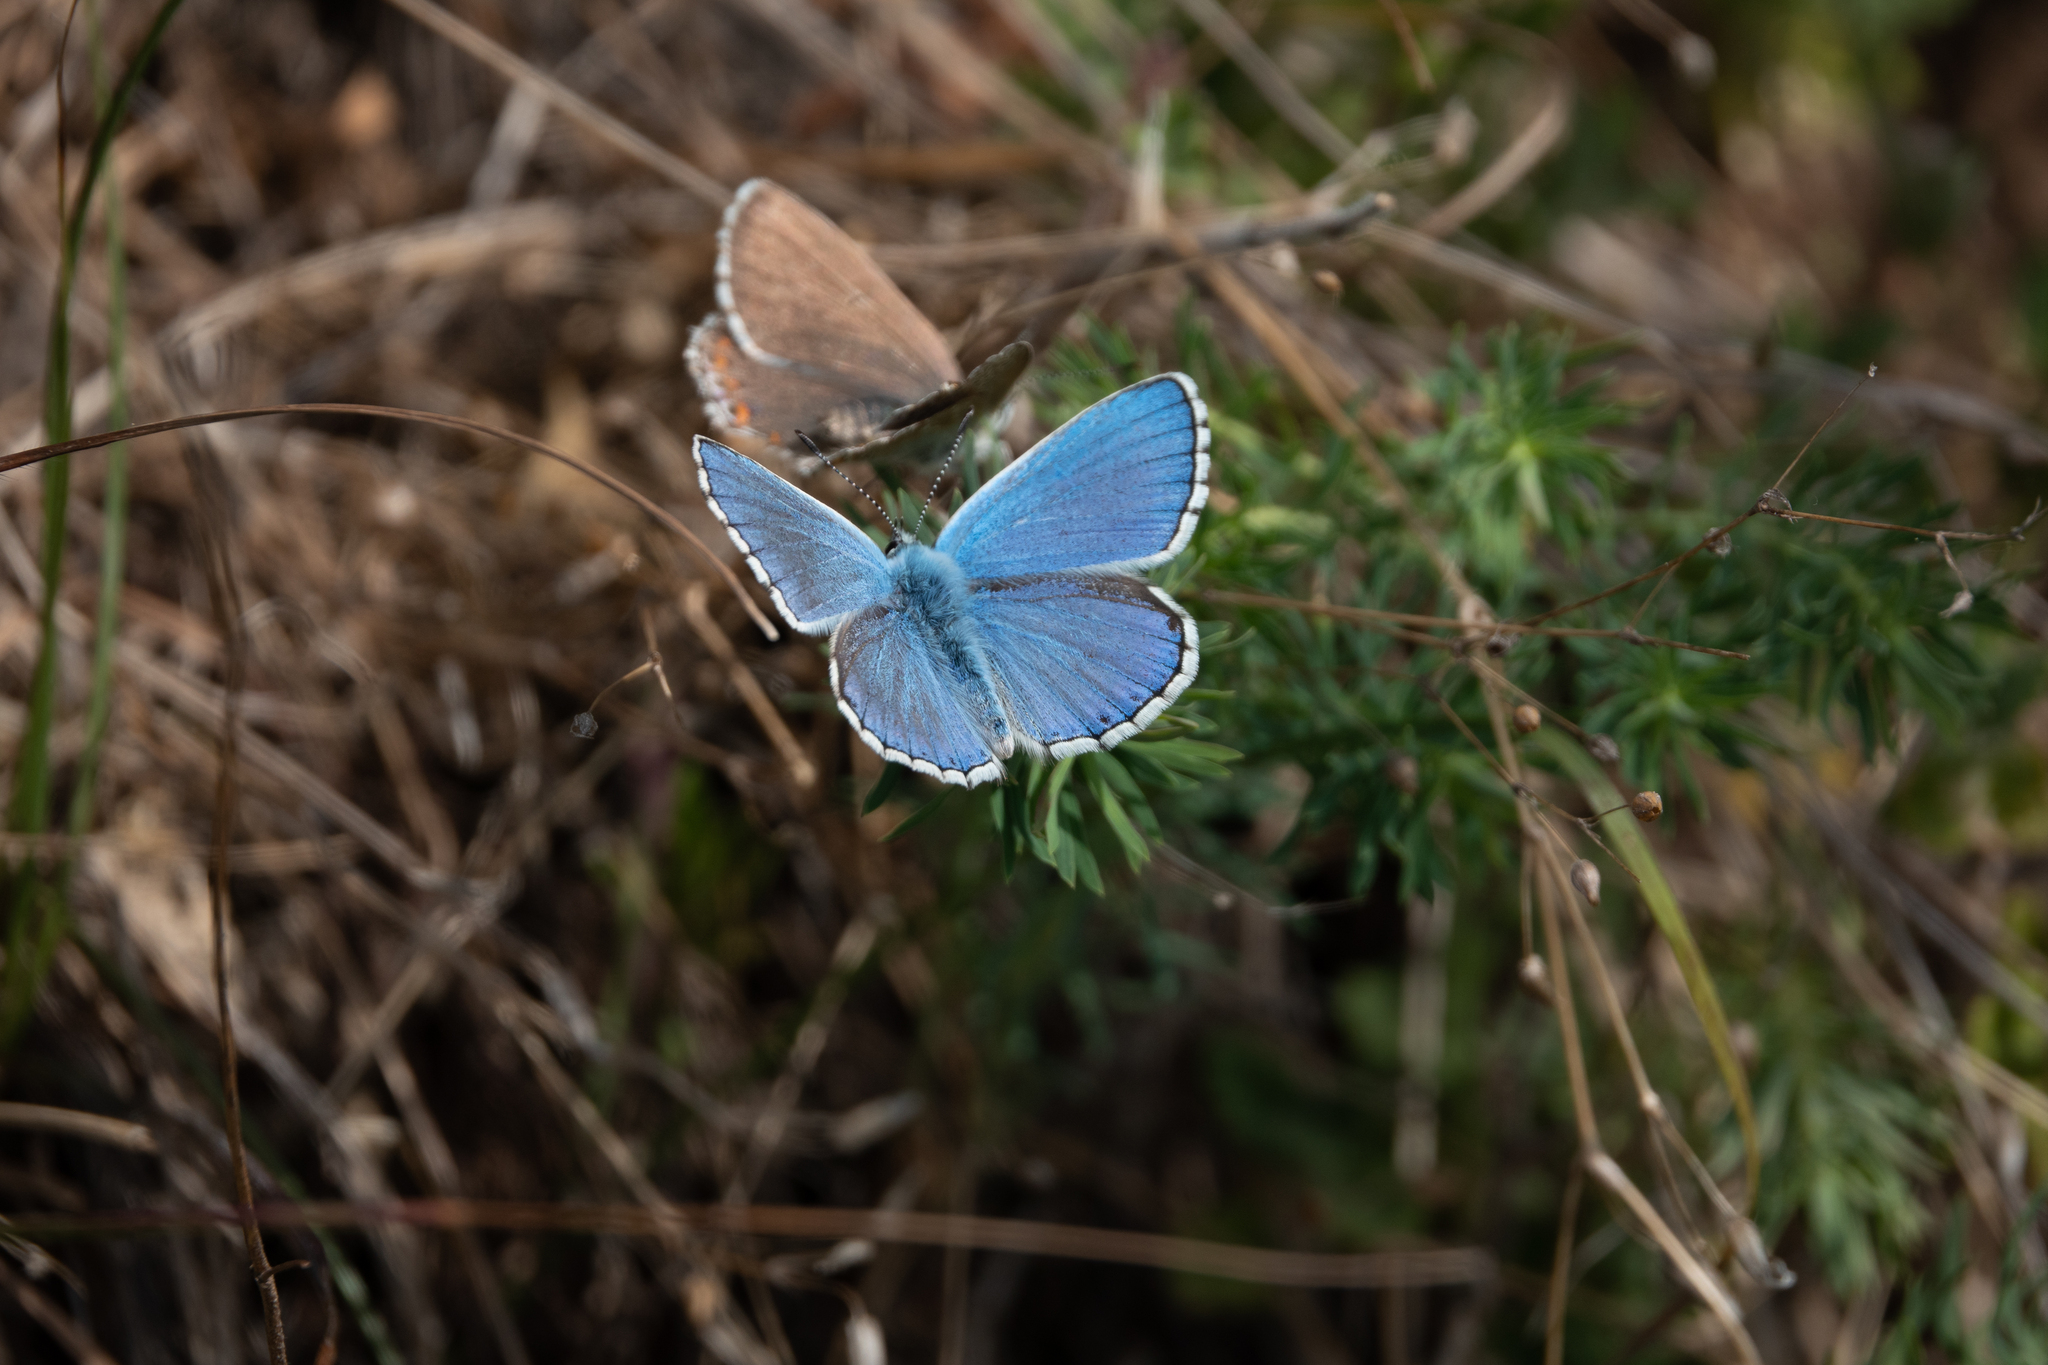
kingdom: Animalia
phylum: Arthropoda
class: Insecta
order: Lepidoptera
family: Lycaenidae
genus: Lysandra
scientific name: Lysandra bellargus
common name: Adonis blue
